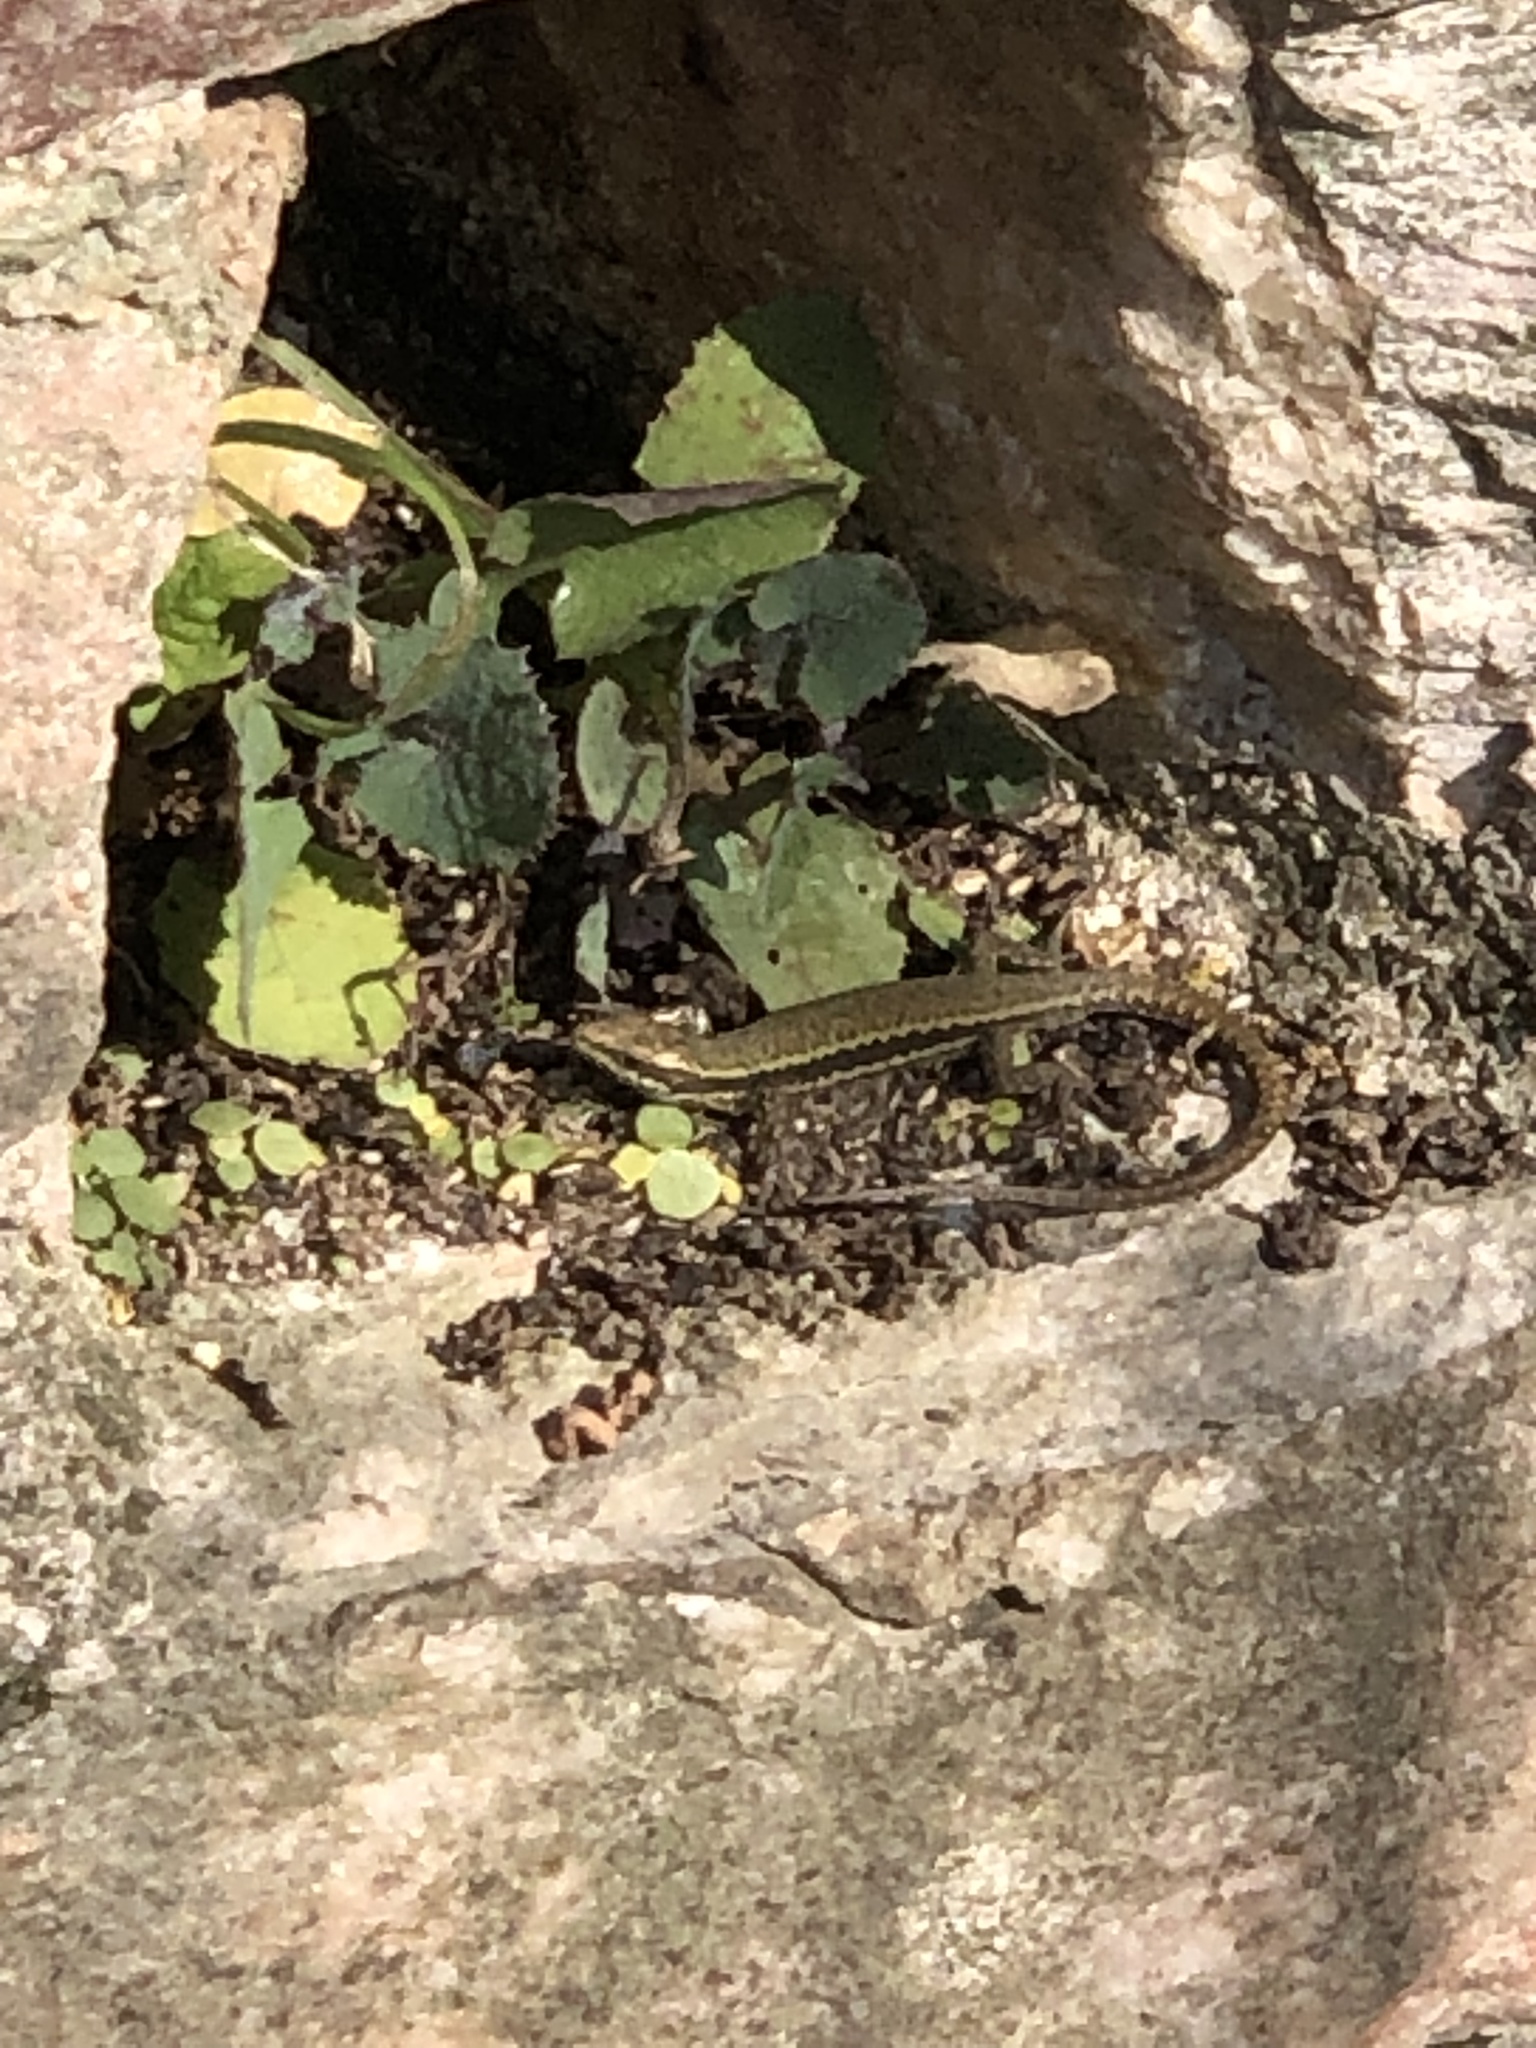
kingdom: Animalia
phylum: Chordata
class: Squamata
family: Lacertidae
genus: Podarcis
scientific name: Podarcis muralis
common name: Common wall lizard
